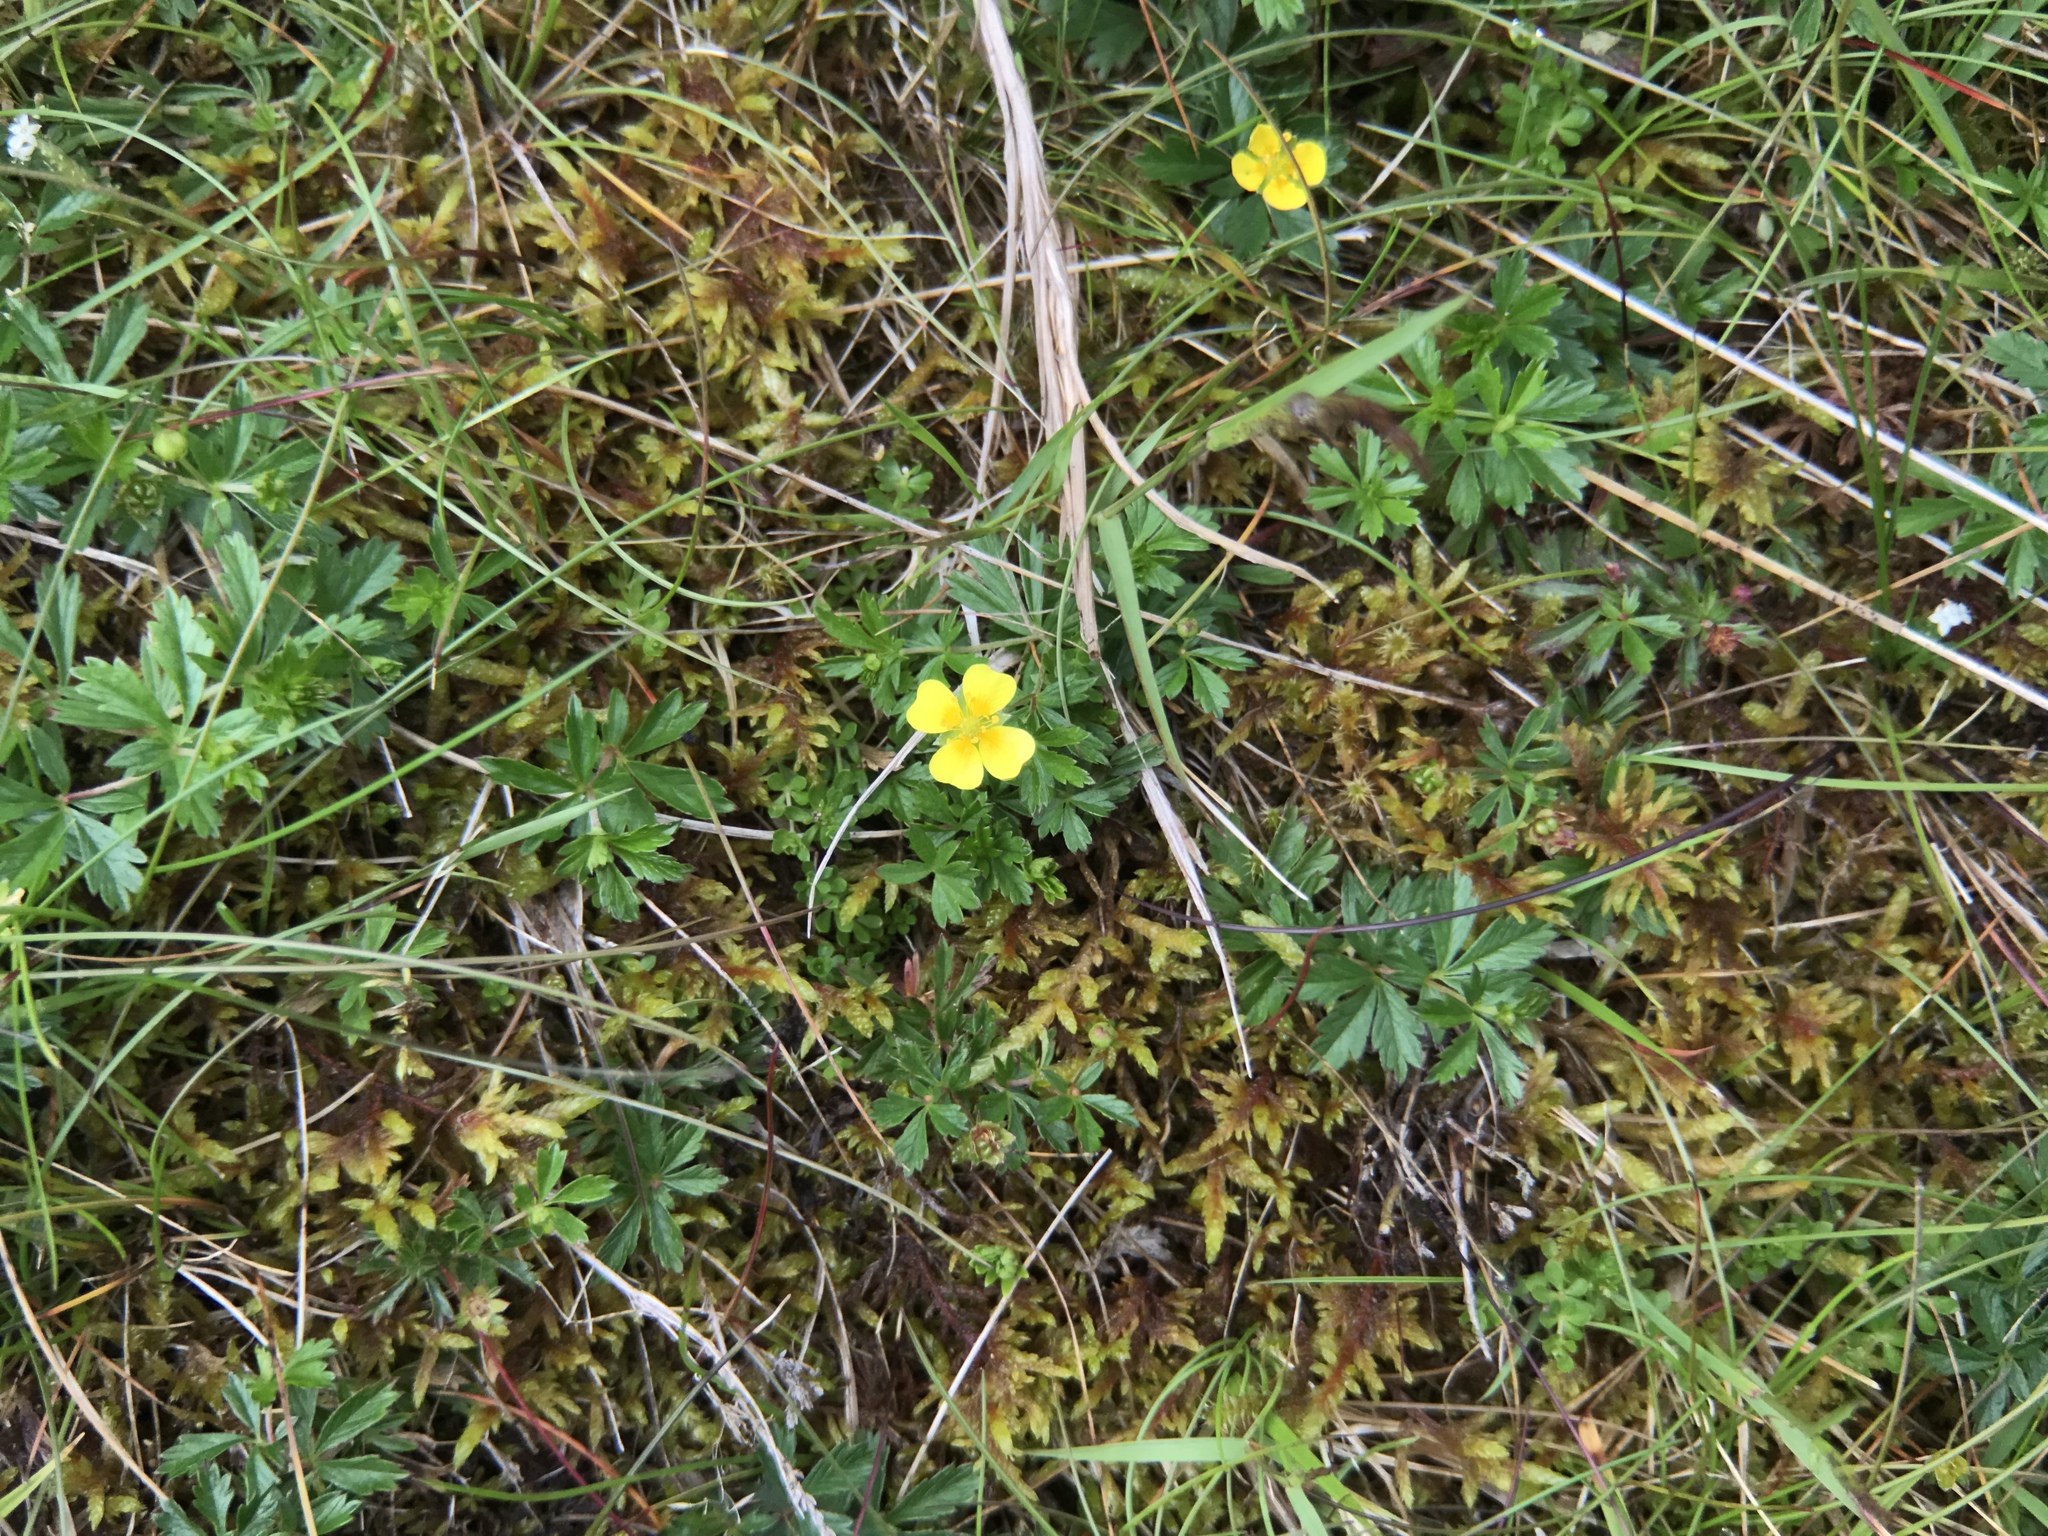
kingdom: Plantae
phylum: Tracheophyta
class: Magnoliopsida
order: Rosales
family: Rosaceae
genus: Potentilla
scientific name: Potentilla erecta
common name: Tormentil
